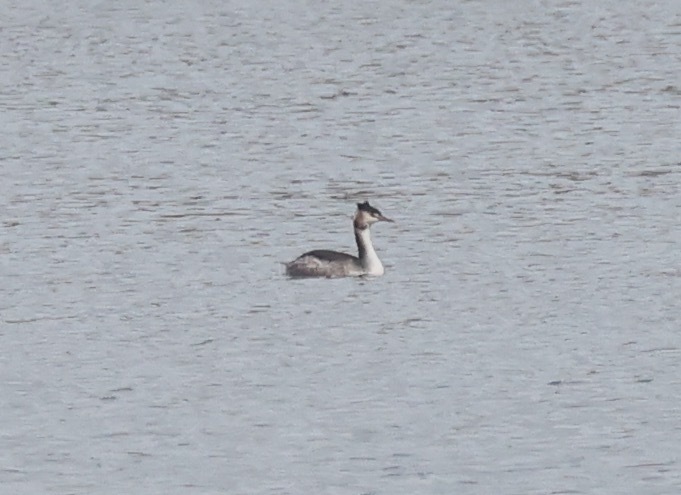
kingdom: Animalia
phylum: Chordata
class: Aves
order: Podicipediformes
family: Podicipedidae
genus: Podiceps
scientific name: Podiceps cristatus
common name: Great crested grebe
